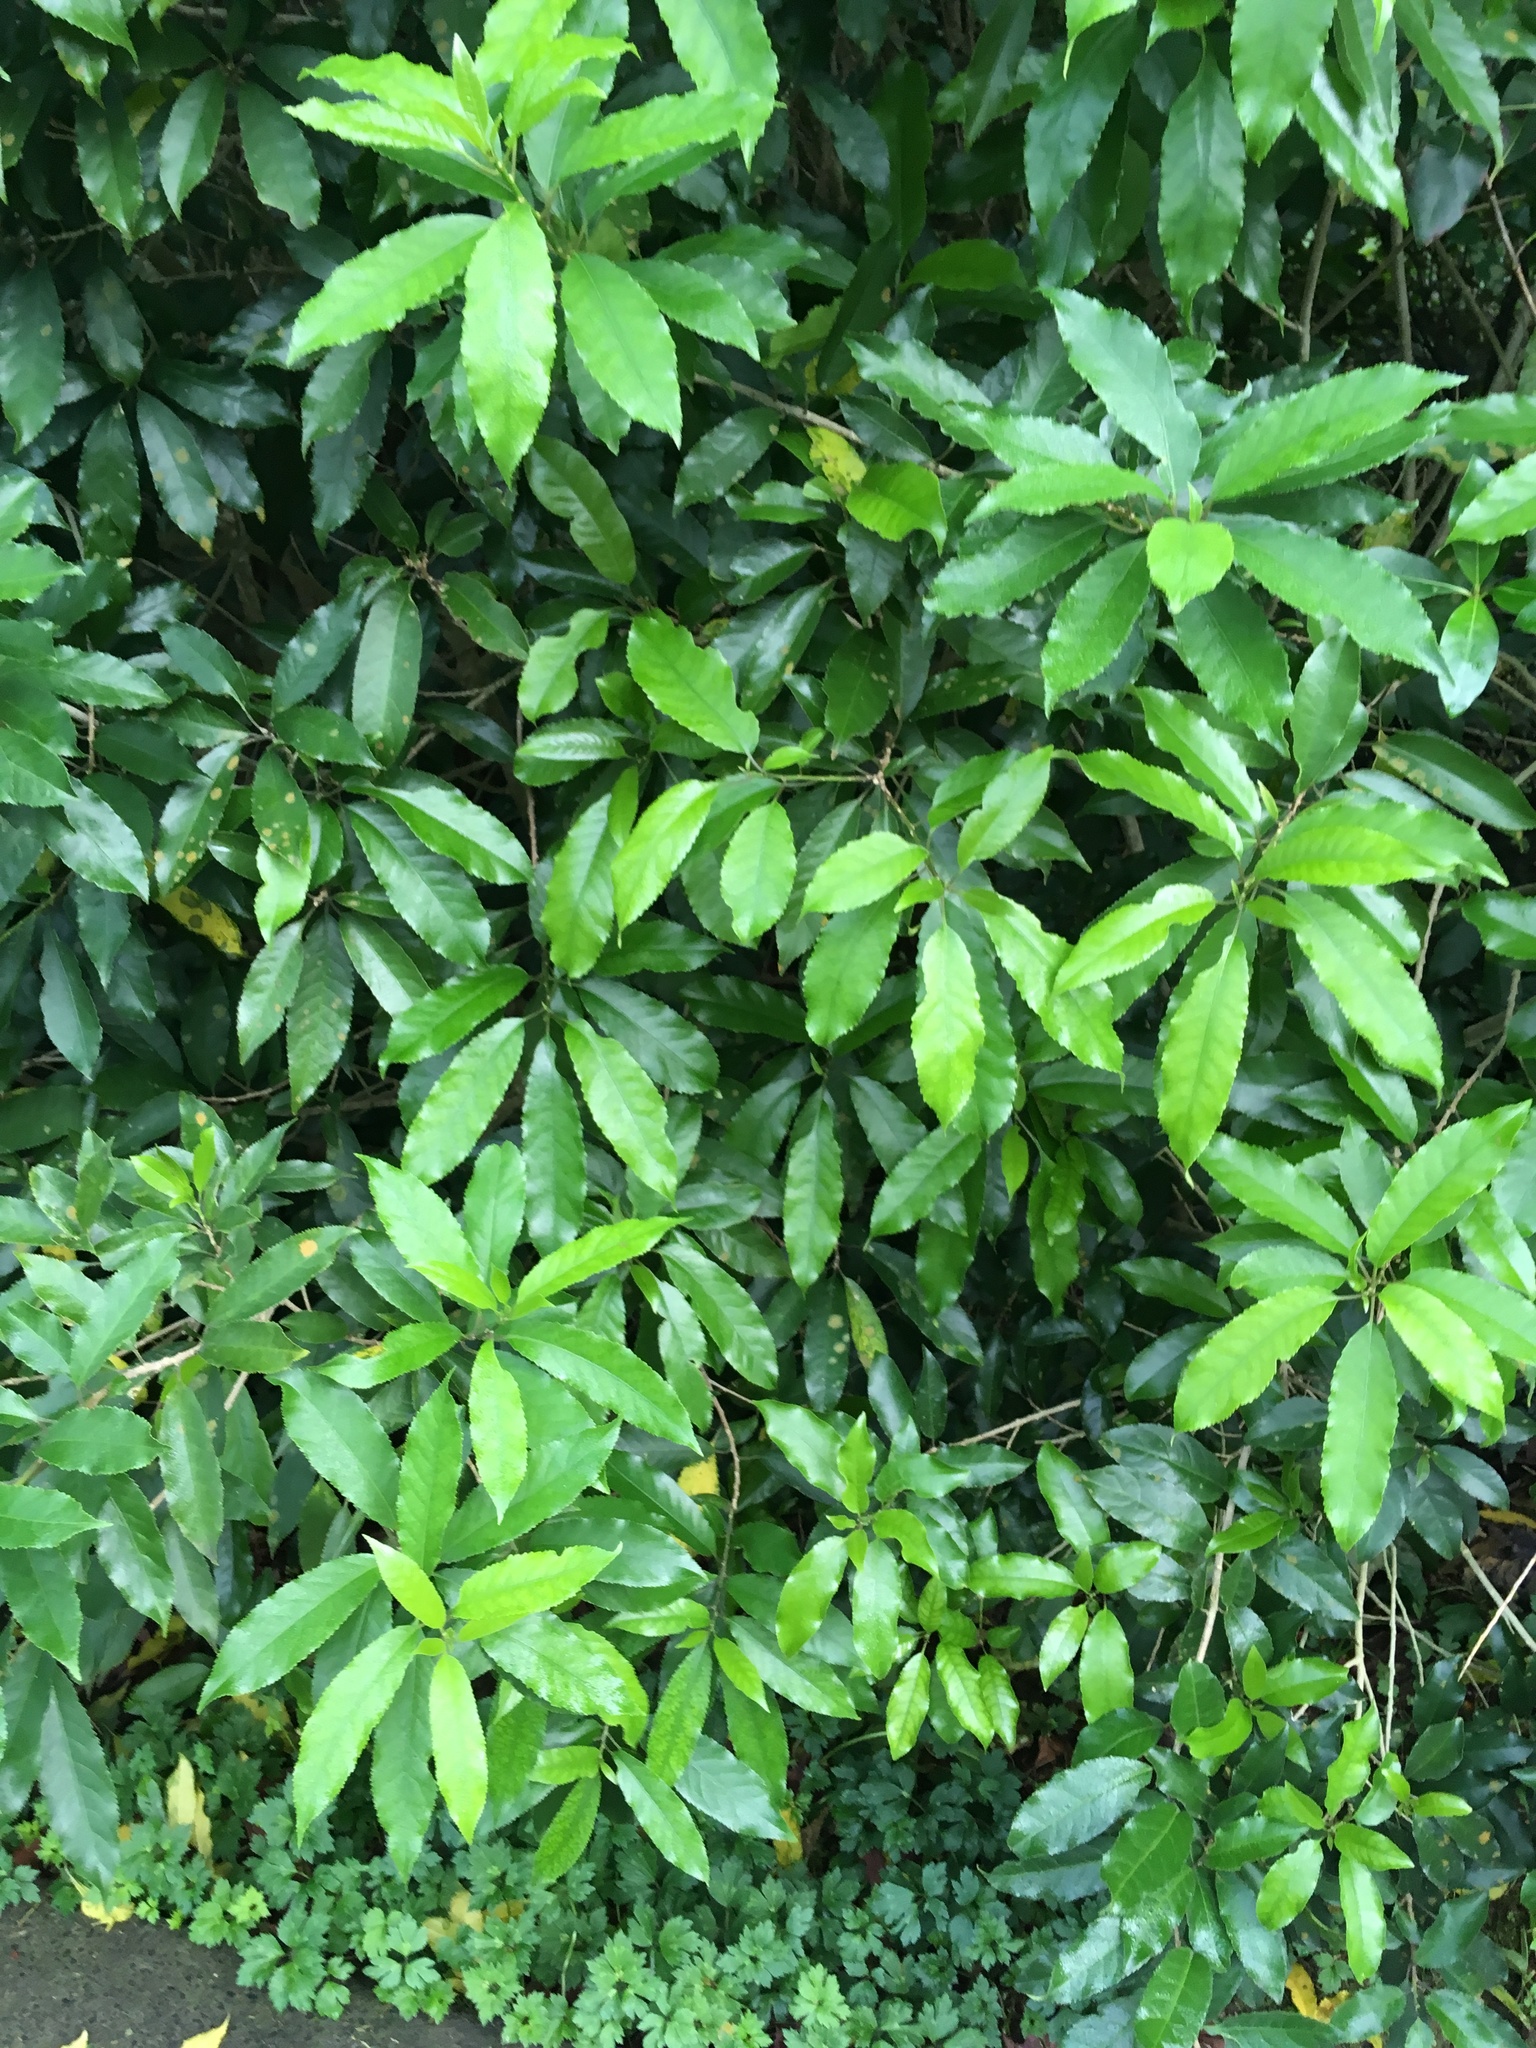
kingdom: Plantae
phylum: Tracheophyta
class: Magnoliopsida
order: Malpighiales
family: Violaceae
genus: Melicytus
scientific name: Melicytus ramiflorus
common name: Mahoe
